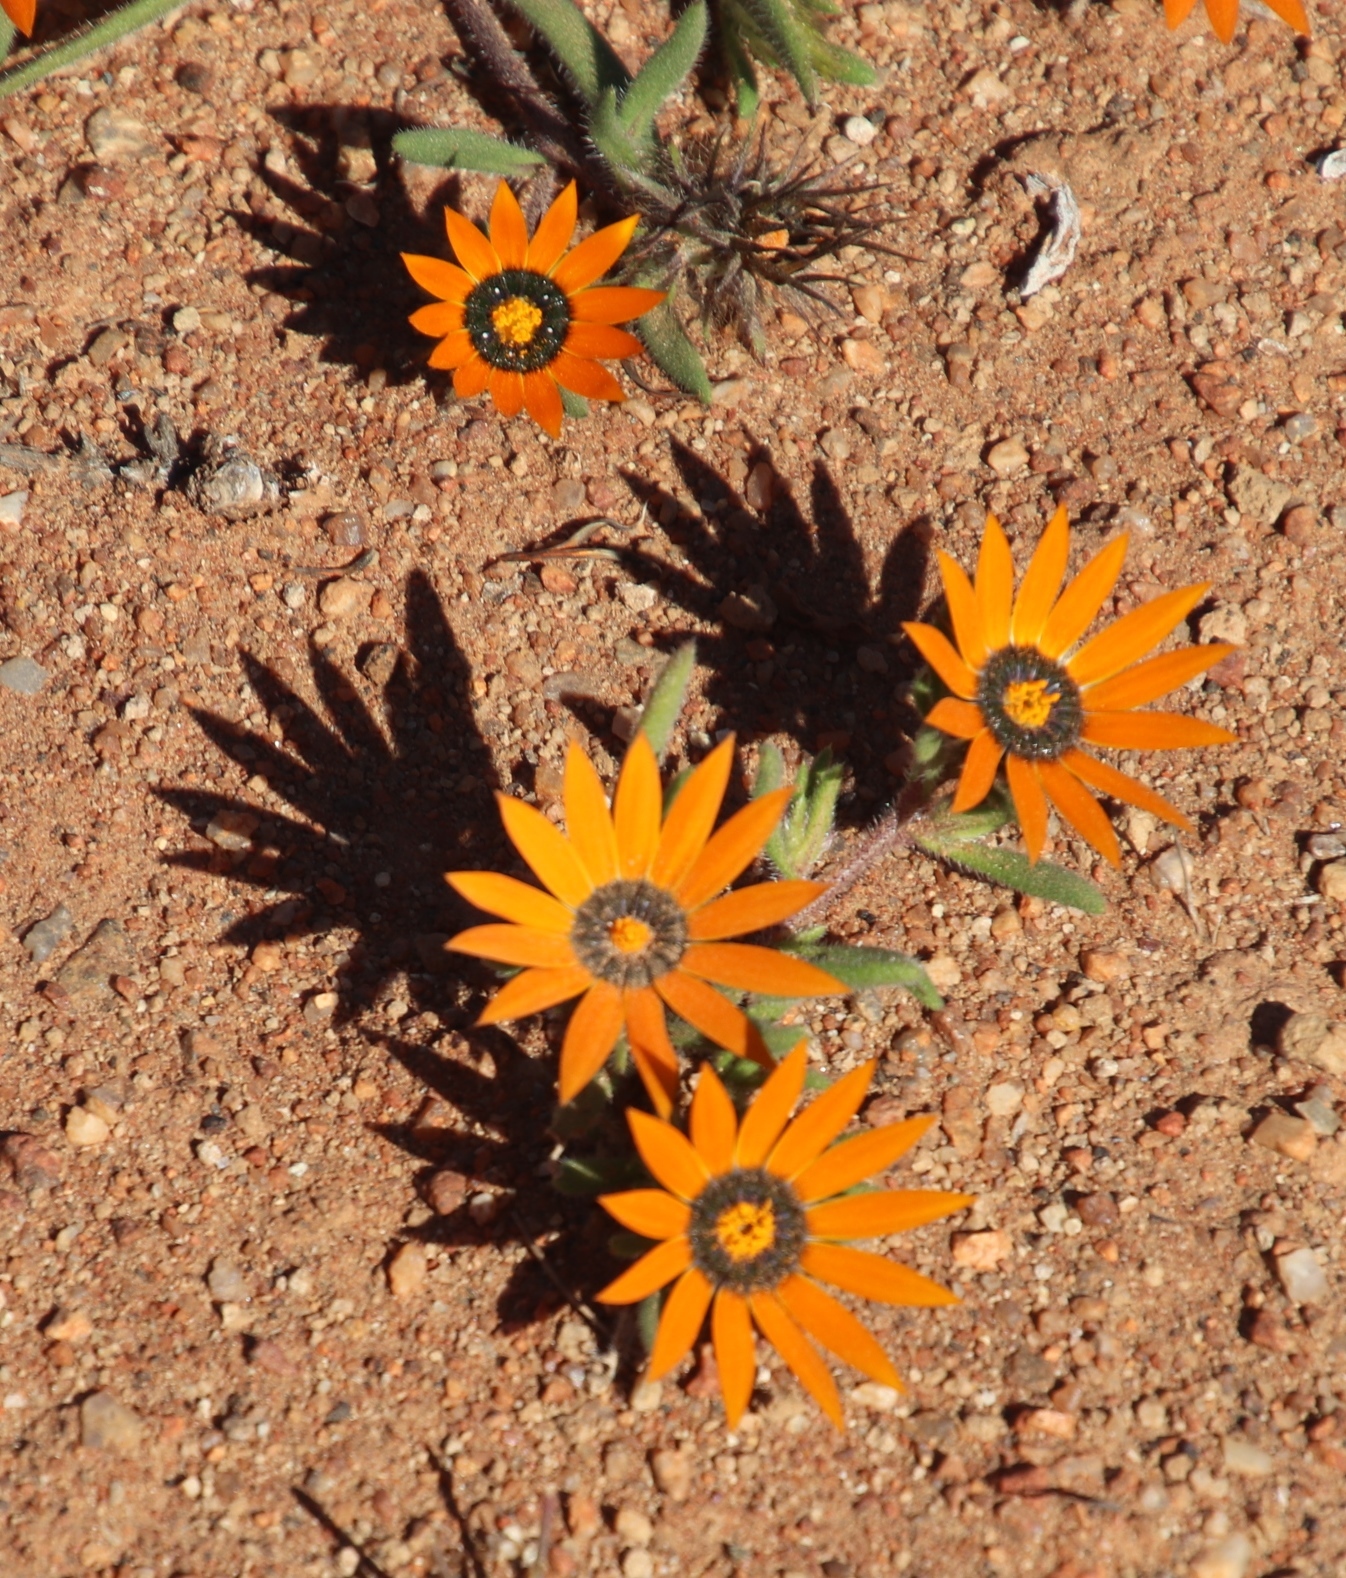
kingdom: Plantae
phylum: Tracheophyta
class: Magnoliopsida
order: Asterales
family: Asteraceae
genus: Gorteria
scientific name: Gorteria diffusa
